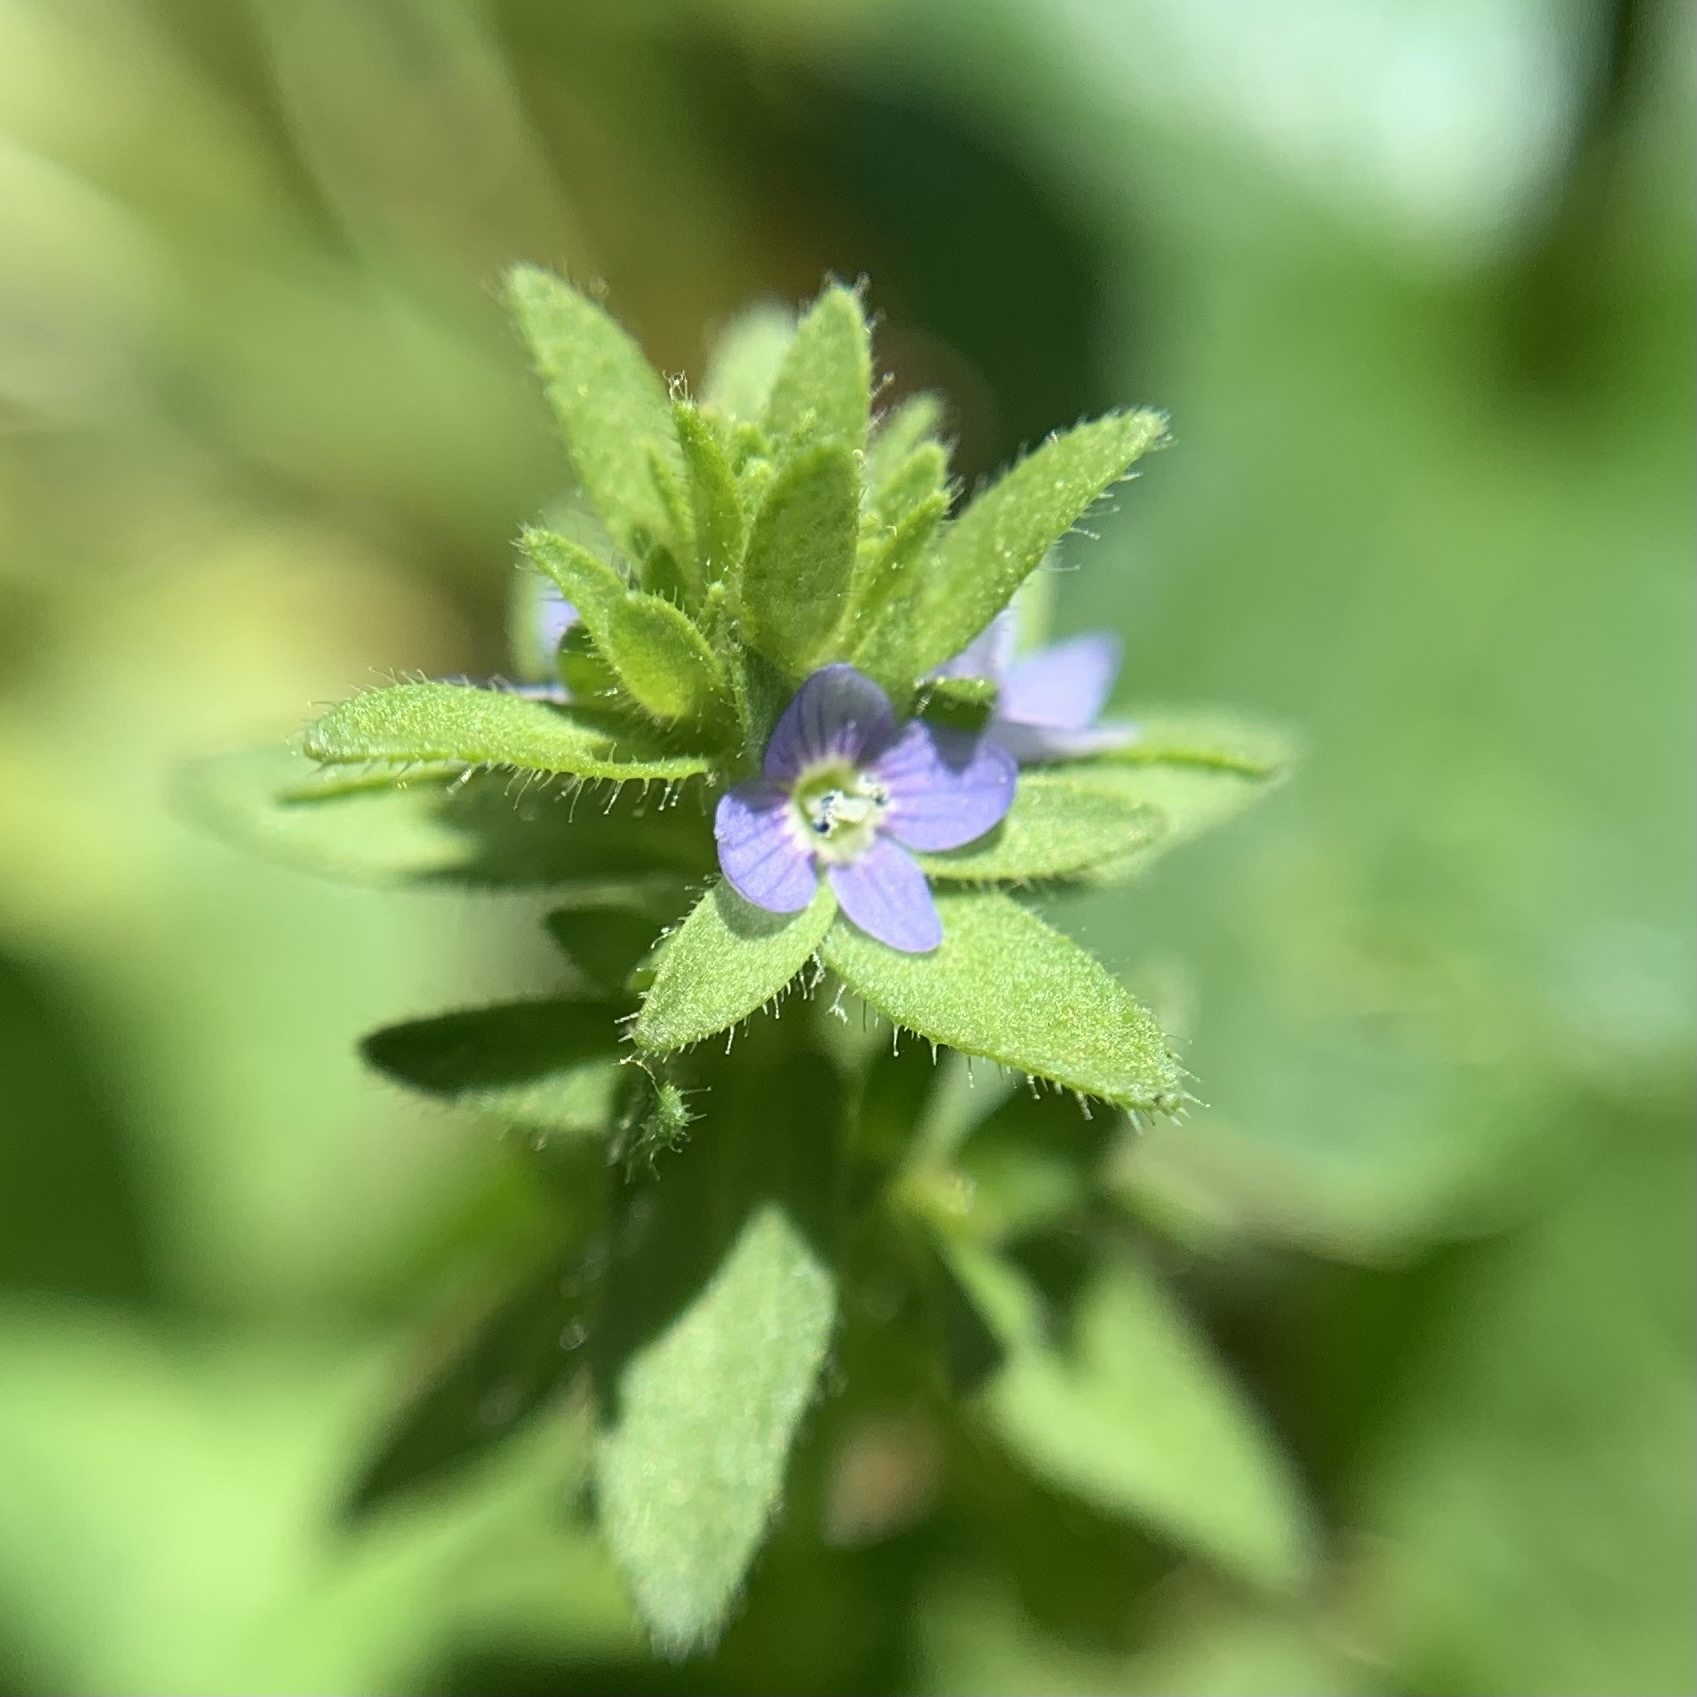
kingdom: Plantae
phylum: Tracheophyta
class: Magnoliopsida
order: Lamiales
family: Plantaginaceae
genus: Veronica
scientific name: Veronica arvensis
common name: Corn speedwell
